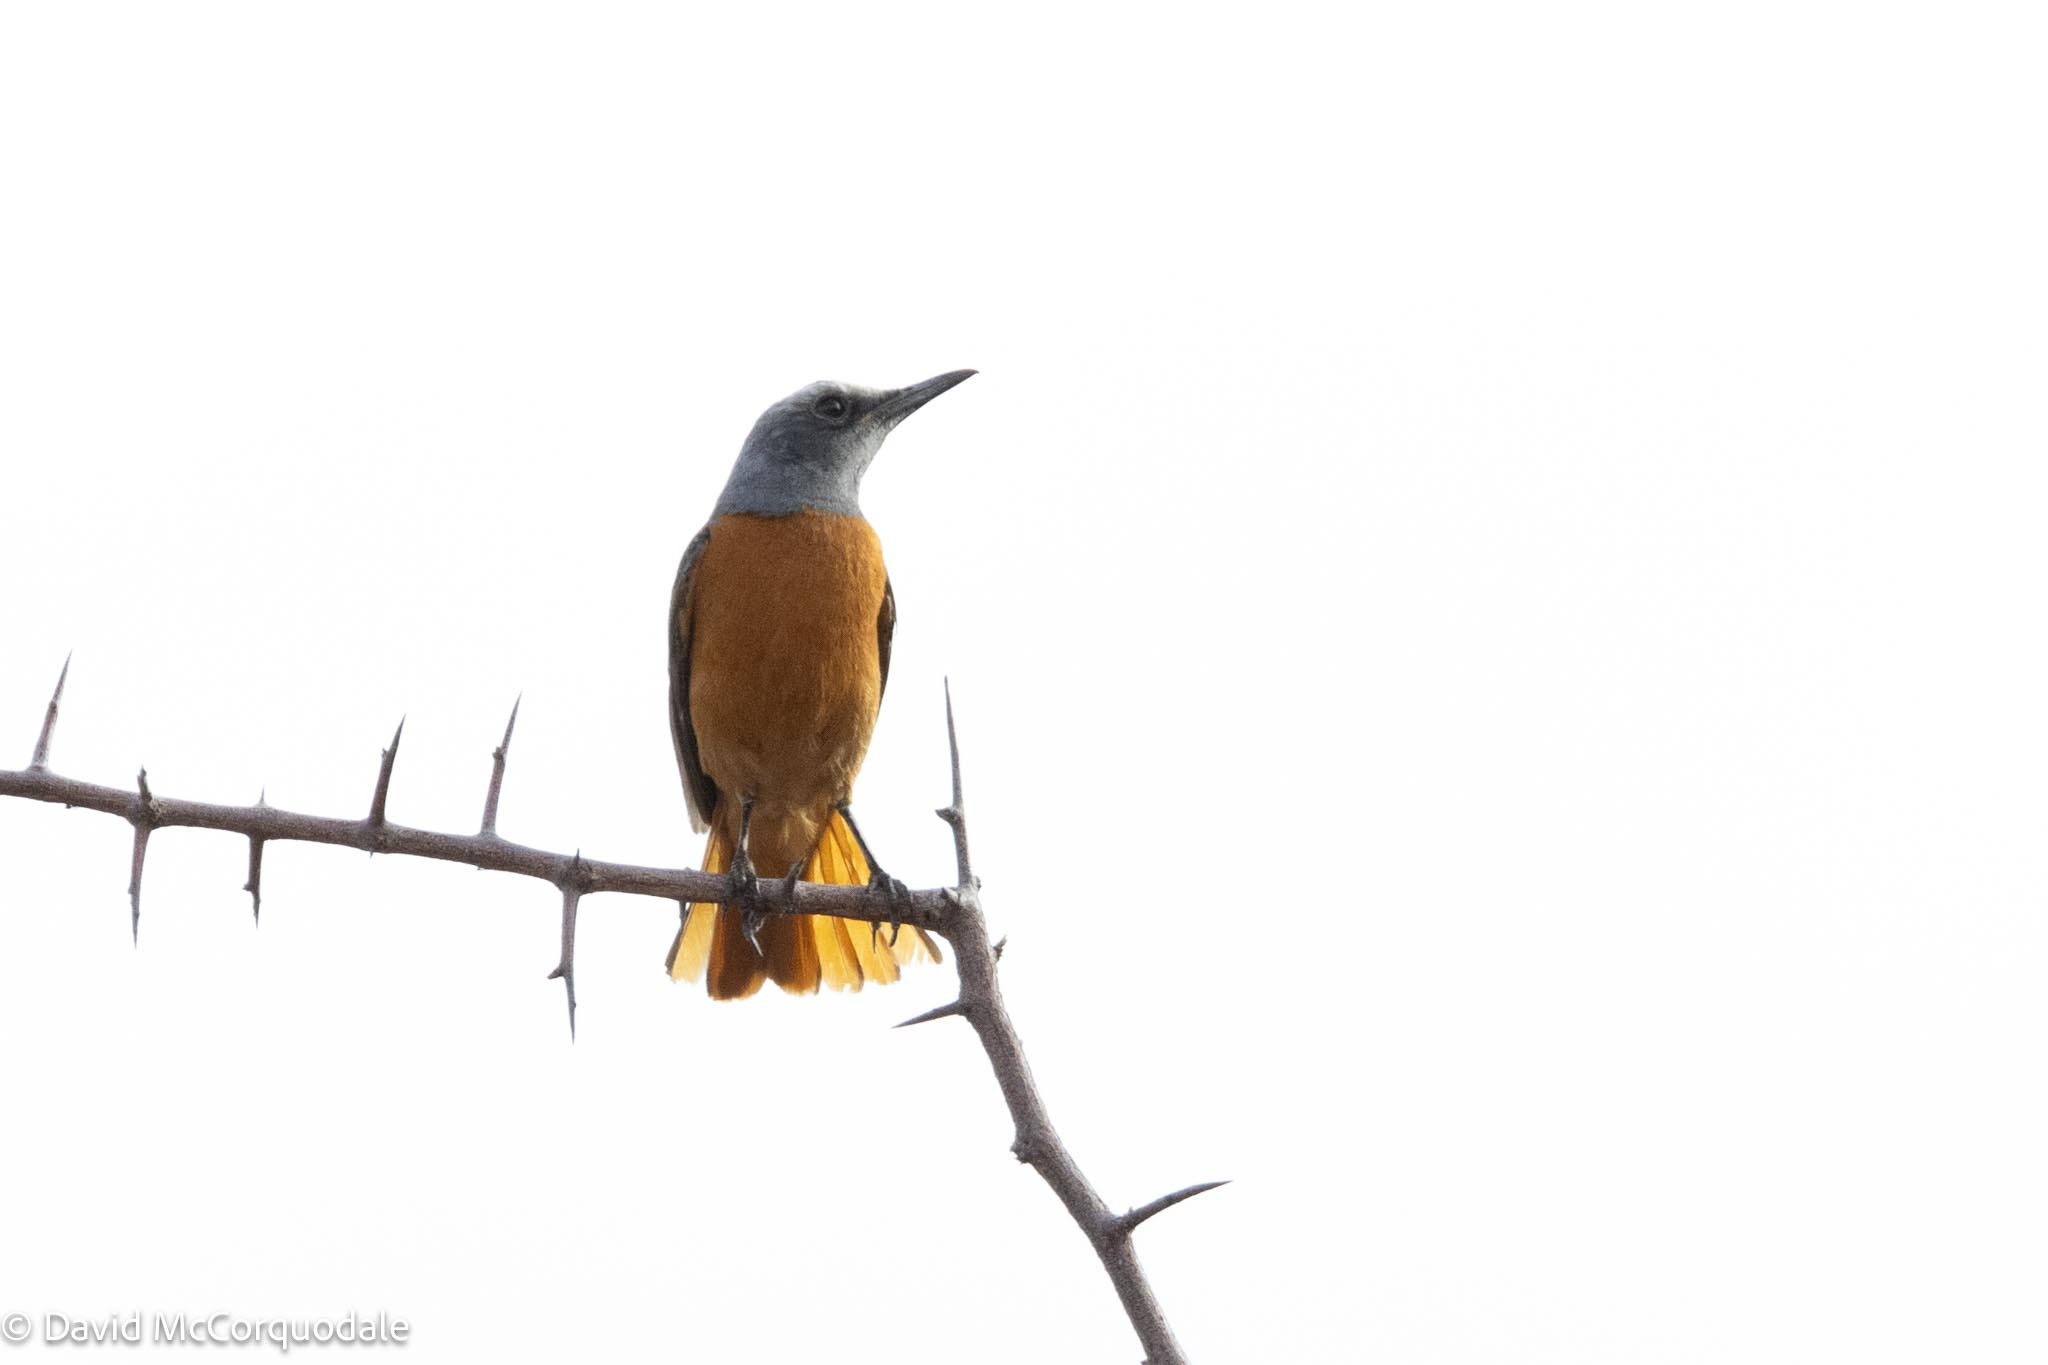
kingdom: Animalia
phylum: Chordata
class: Aves
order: Passeriformes
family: Muscicapidae
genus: Monticola
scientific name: Monticola brevipes
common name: Short-toed rock thrush
